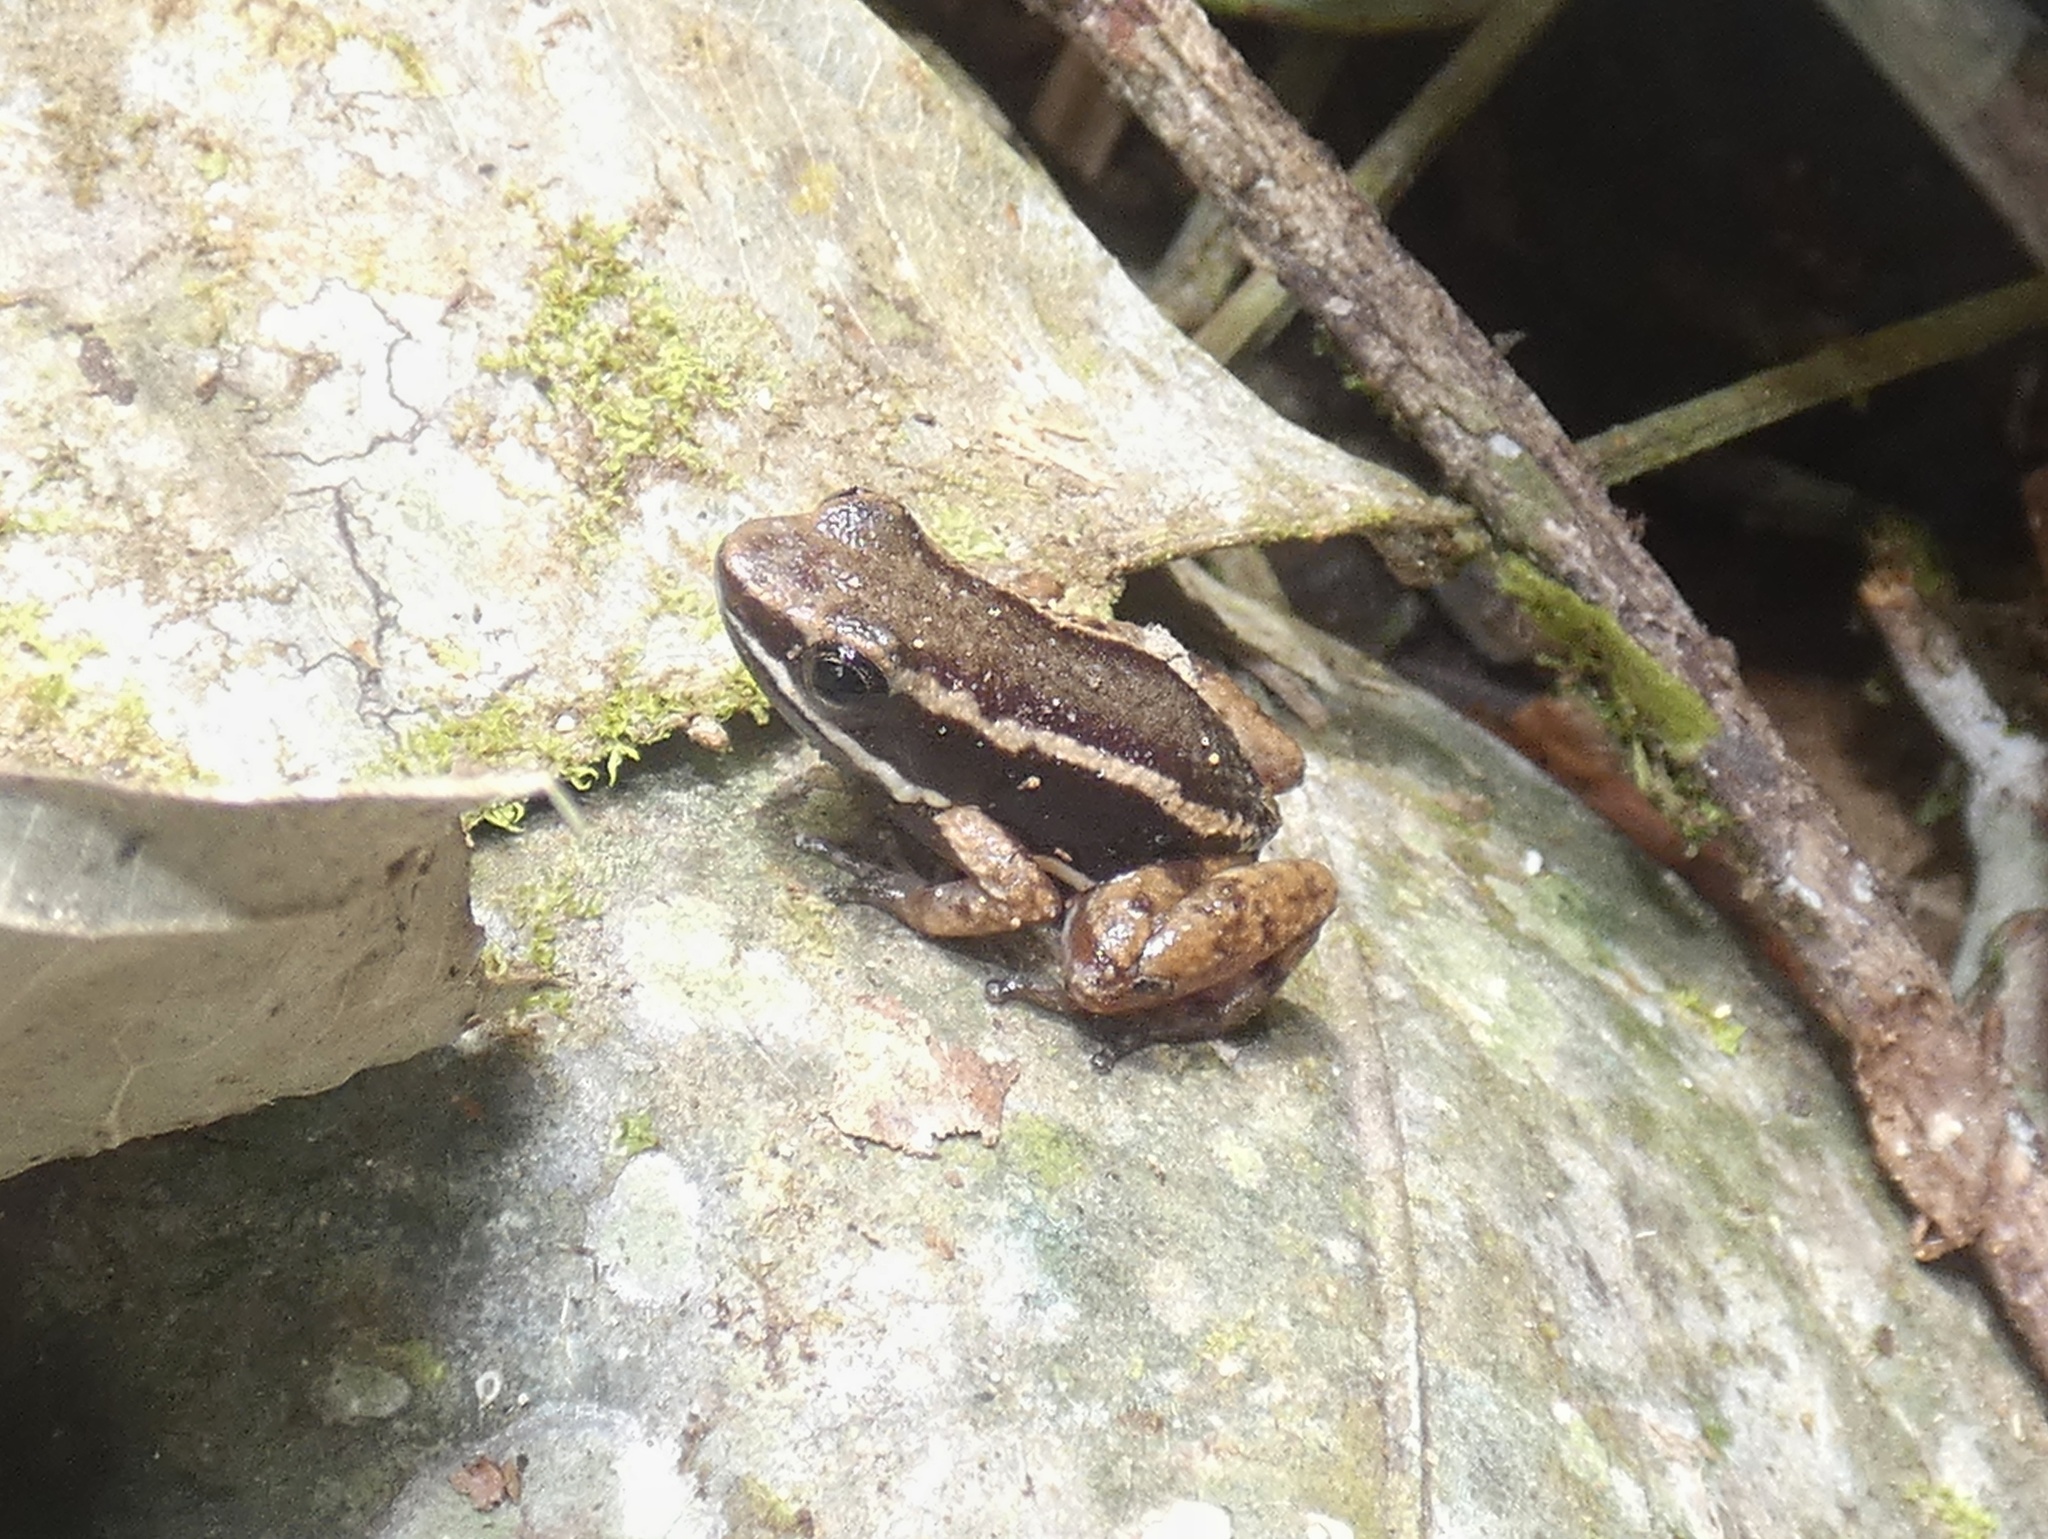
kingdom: Animalia
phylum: Chordata
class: Amphibia
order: Anura
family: Aromobatidae
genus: Allobates
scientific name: Allobates talamancae
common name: Talamanca rocket frog
